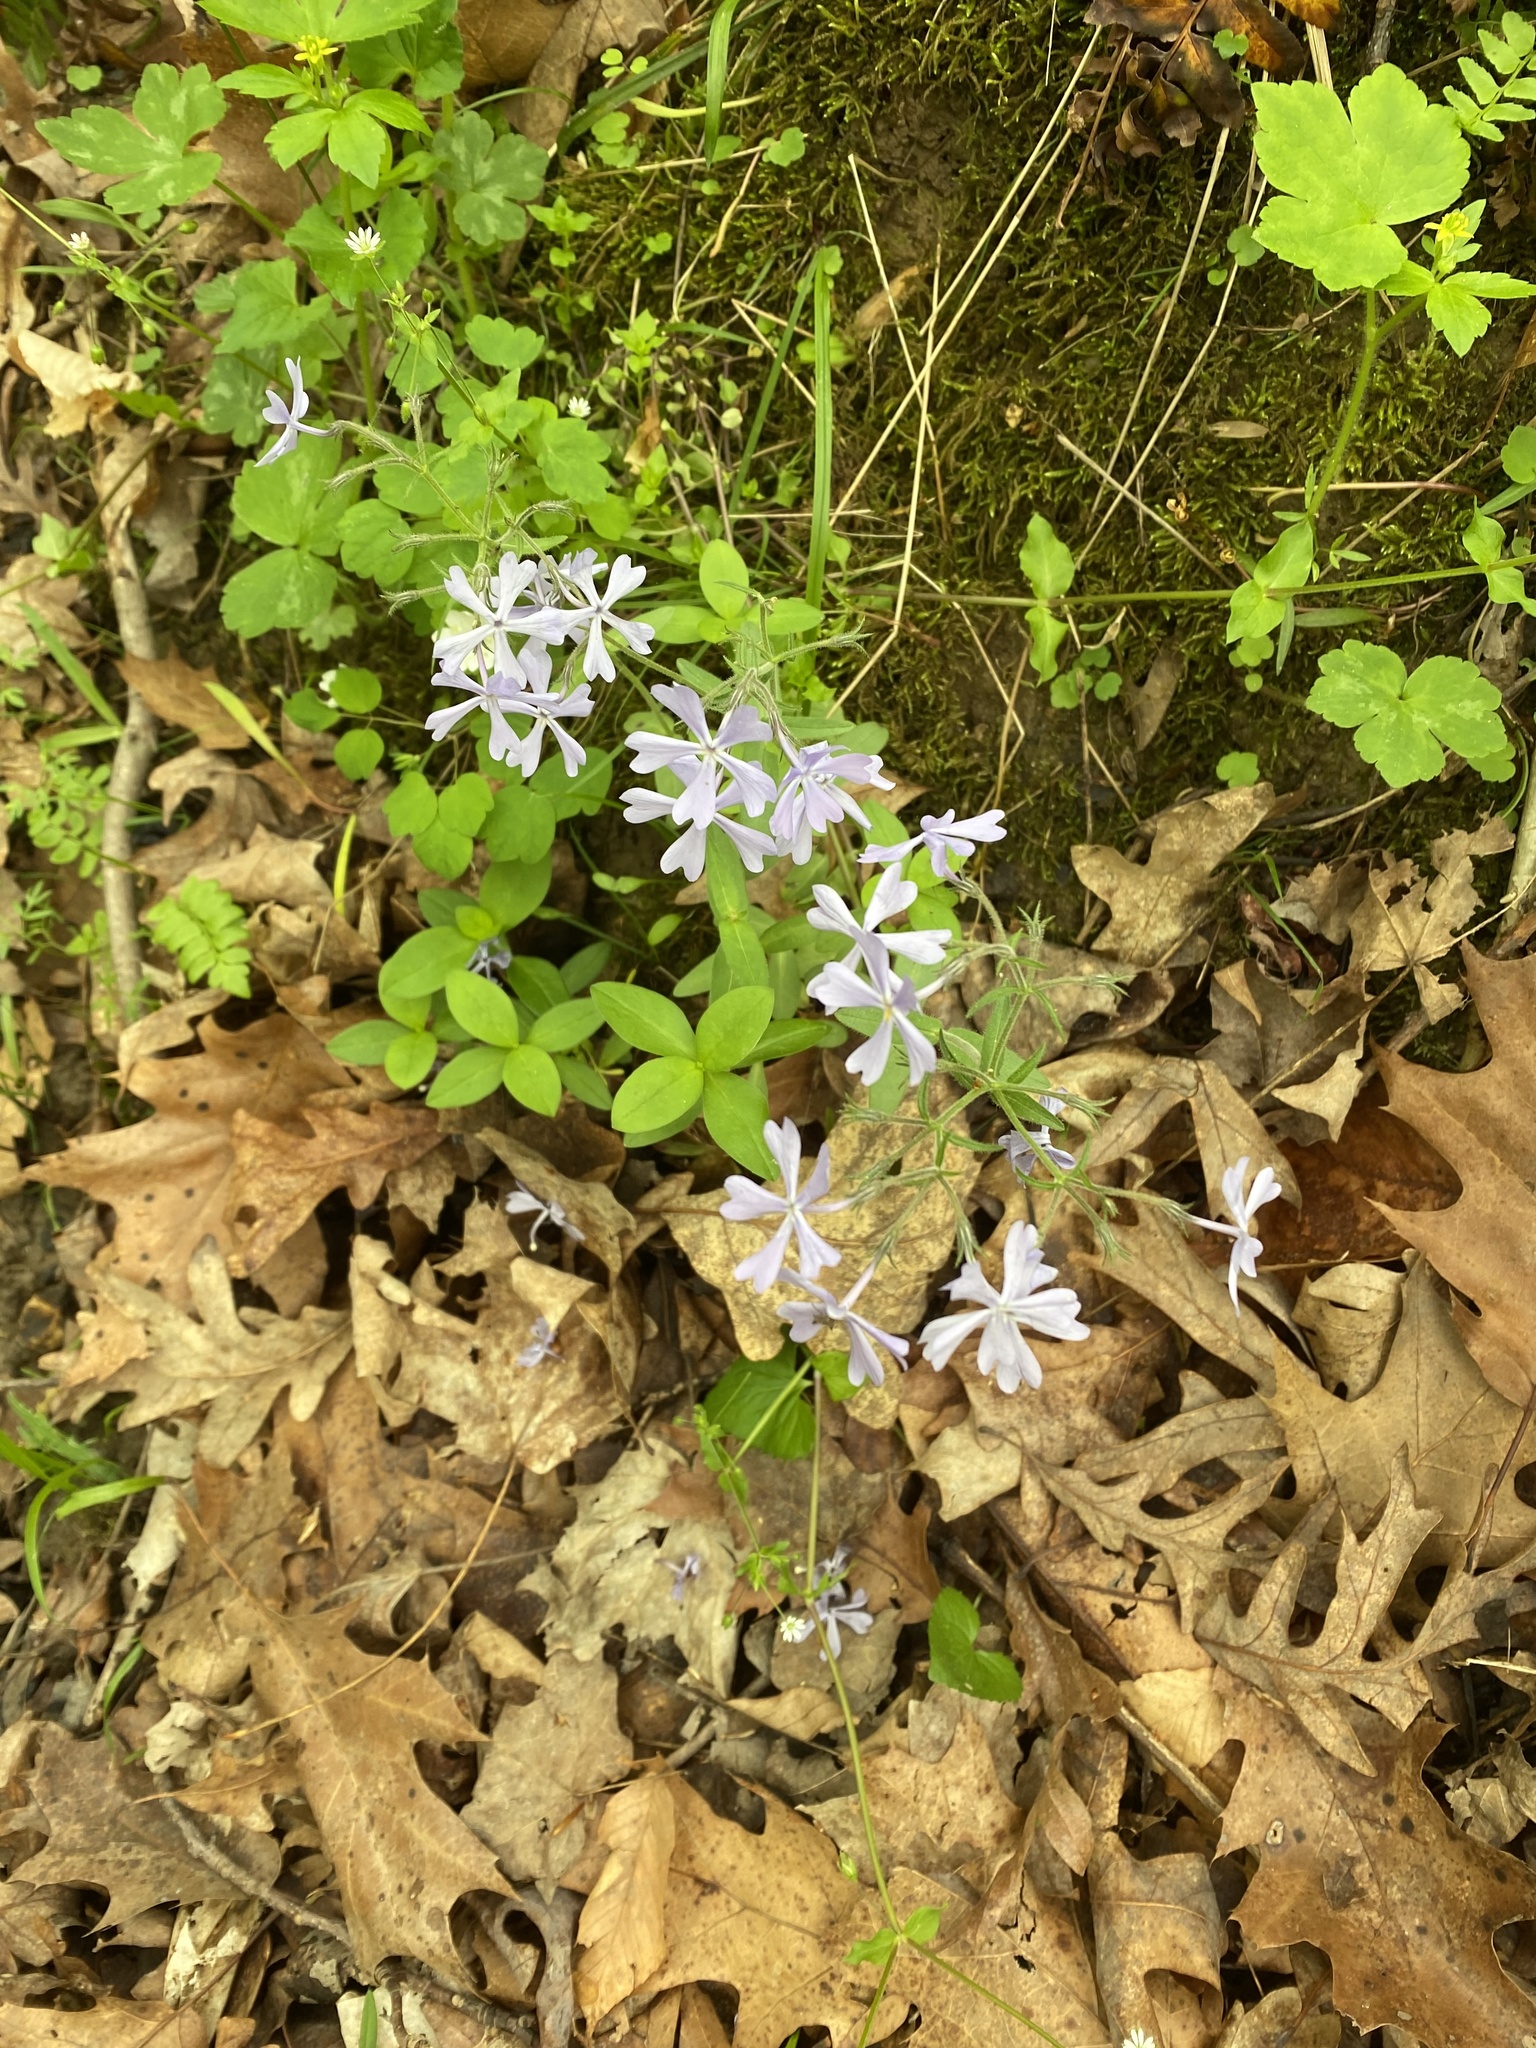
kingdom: Plantae
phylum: Tracheophyta
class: Magnoliopsida
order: Ericales
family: Polemoniaceae
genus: Phlox
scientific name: Phlox divaricata
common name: Blue phlox
